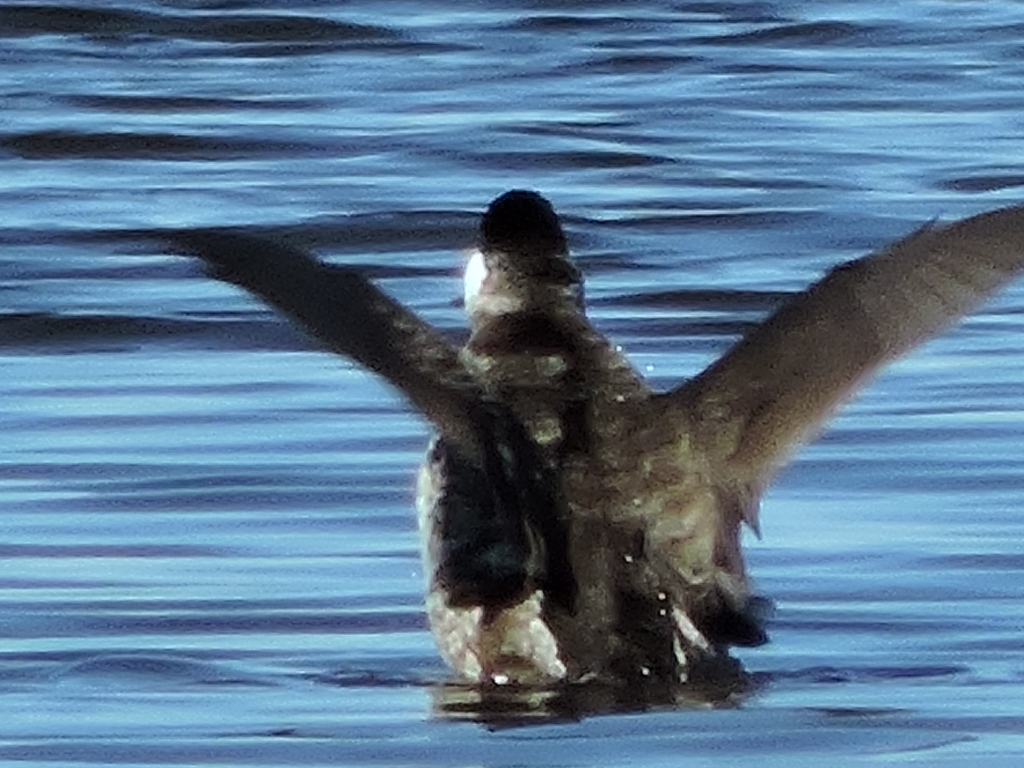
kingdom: Animalia
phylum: Chordata
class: Aves
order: Anseriformes
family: Anatidae
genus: Oxyura
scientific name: Oxyura jamaicensis
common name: Ruddy duck
